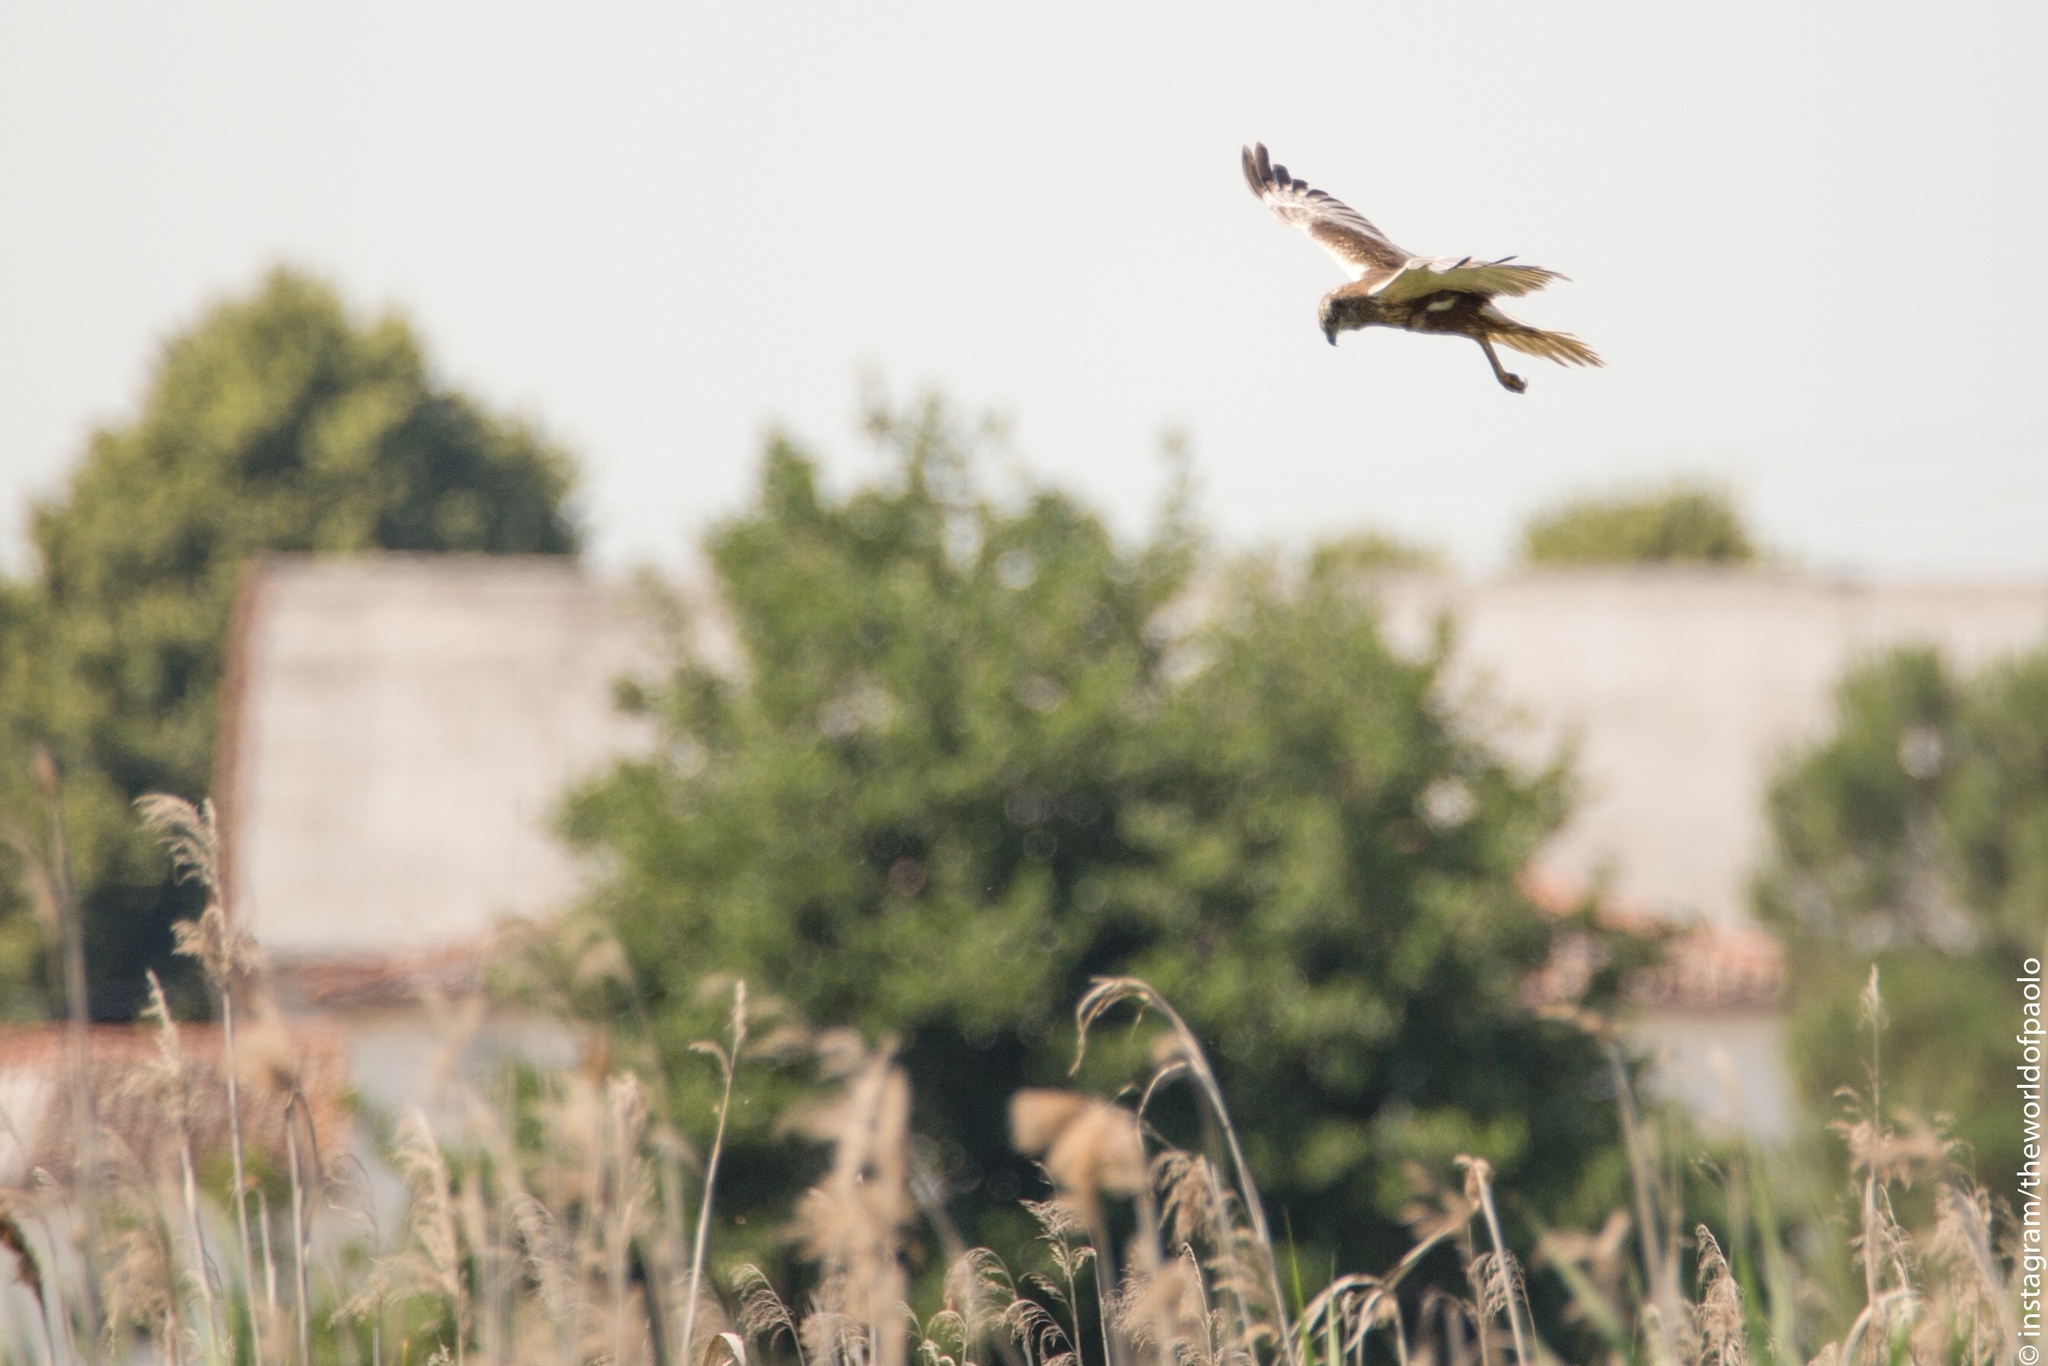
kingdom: Animalia
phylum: Chordata
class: Aves
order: Accipitriformes
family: Accipitridae
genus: Circus
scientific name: Circus aeruginosus
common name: Western marsh harrier
